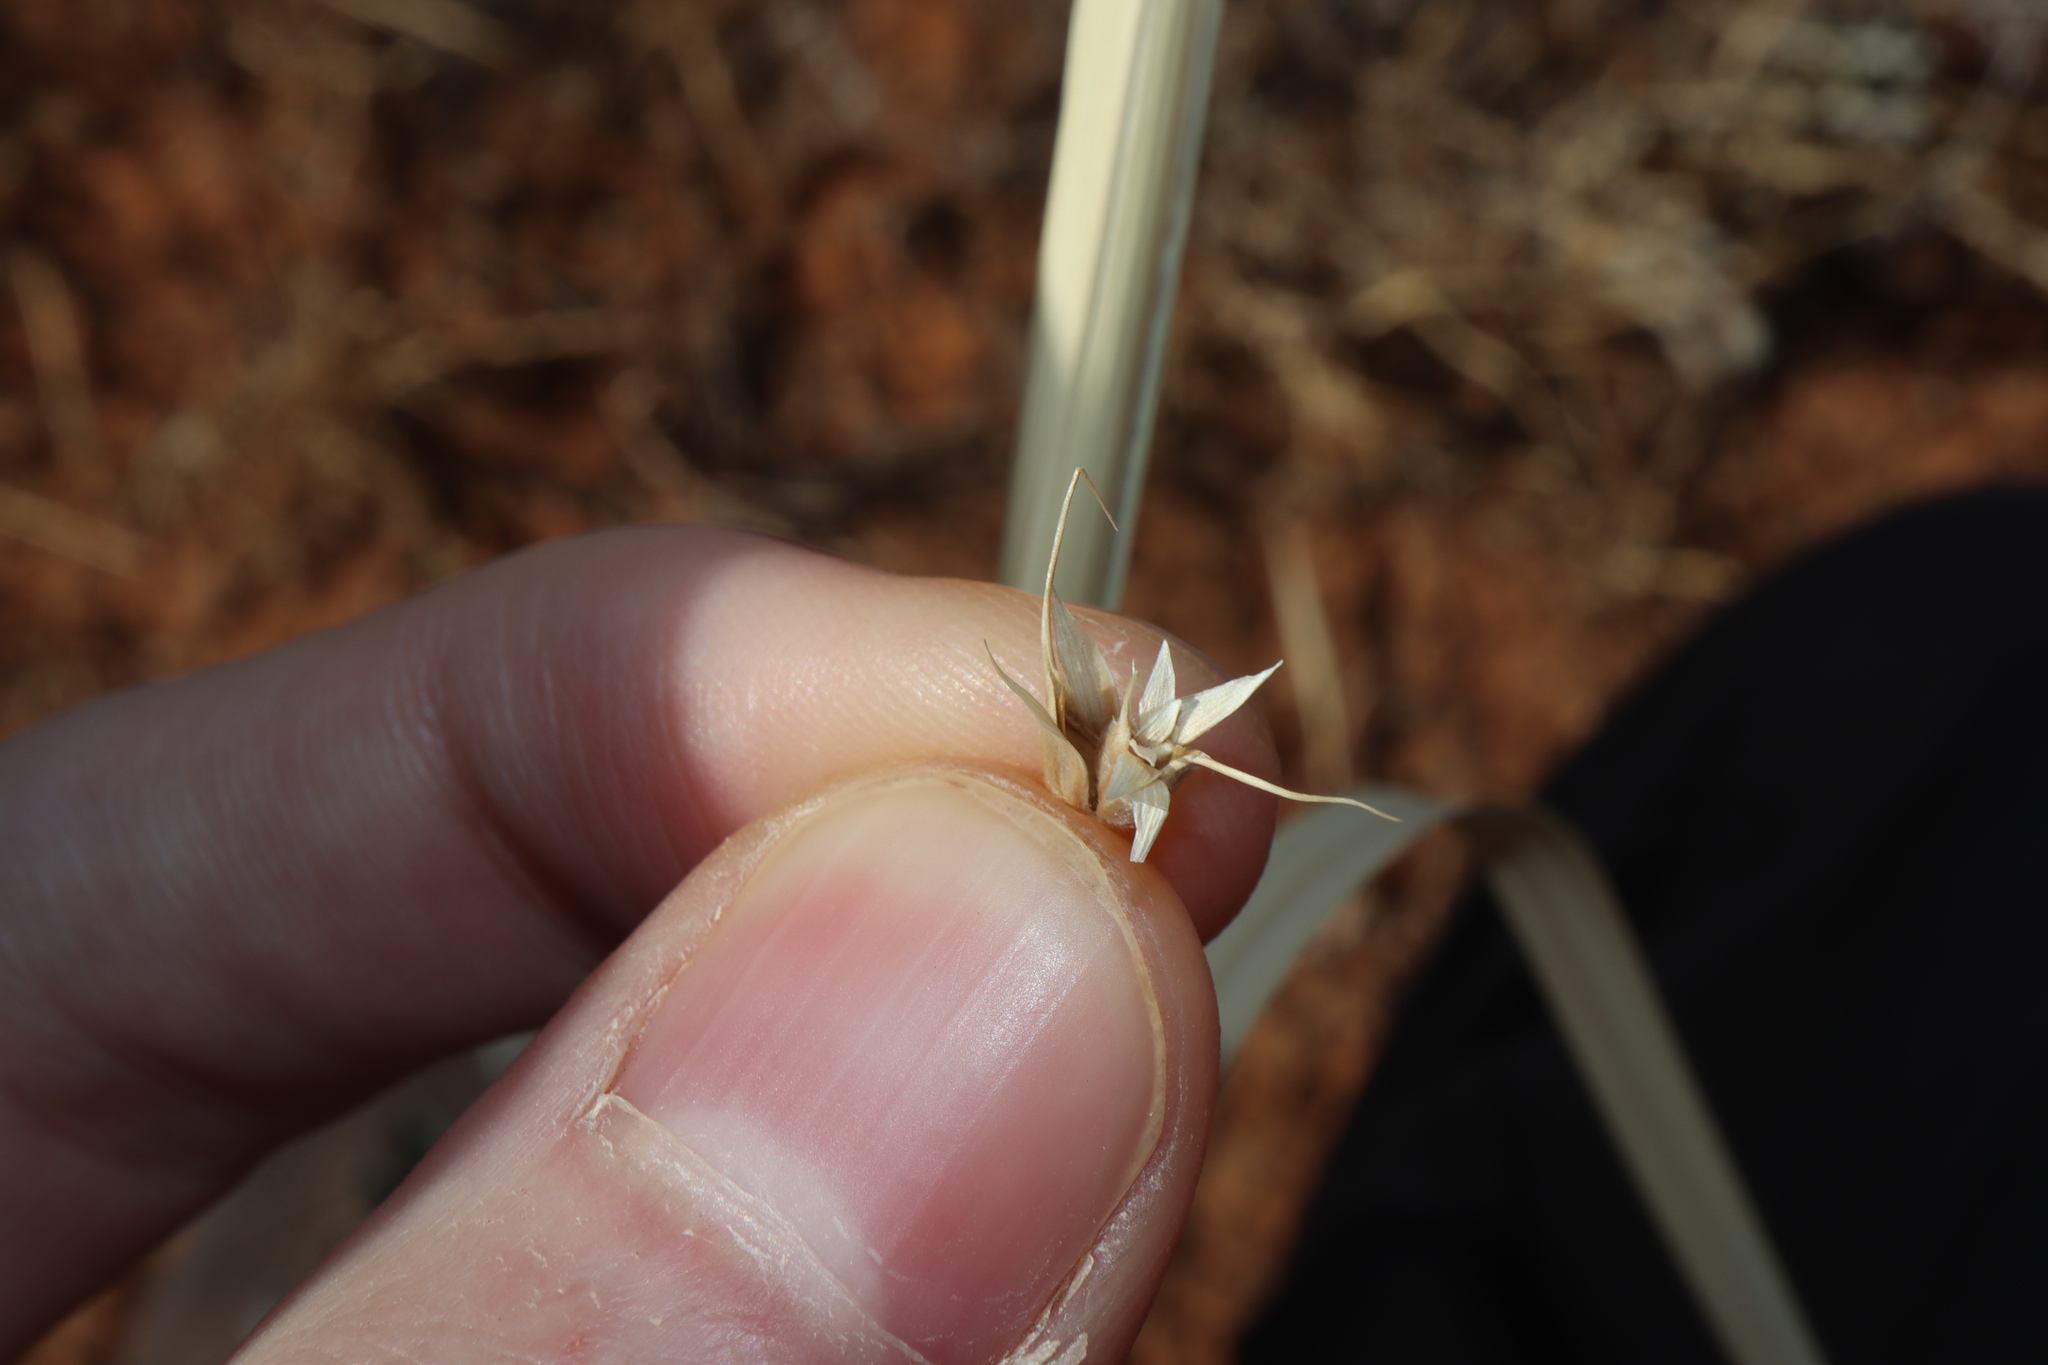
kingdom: Plantae
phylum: Tracheophyta
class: Liliopsida
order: Poales
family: Poaceae
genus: Astrebla
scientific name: Astrebla lappacea
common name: Curly mitchell grass
